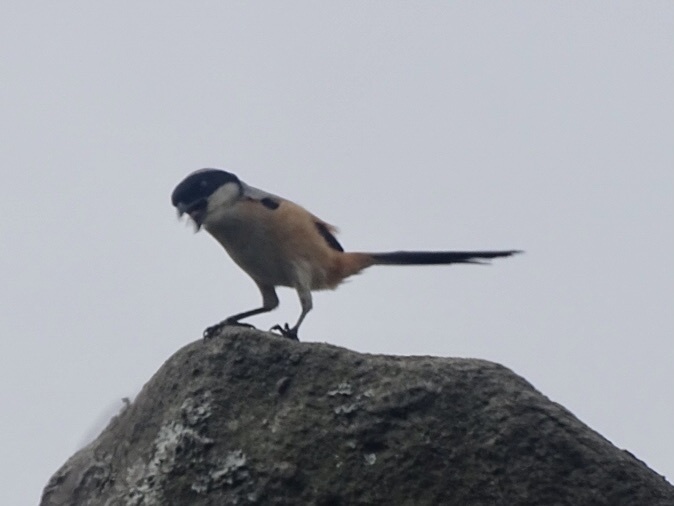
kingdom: Animalia
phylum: Chordata
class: Aves
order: Passeriformes
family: Laniidae
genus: Lanius
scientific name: Lanius schach
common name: Long-tailed shrike
